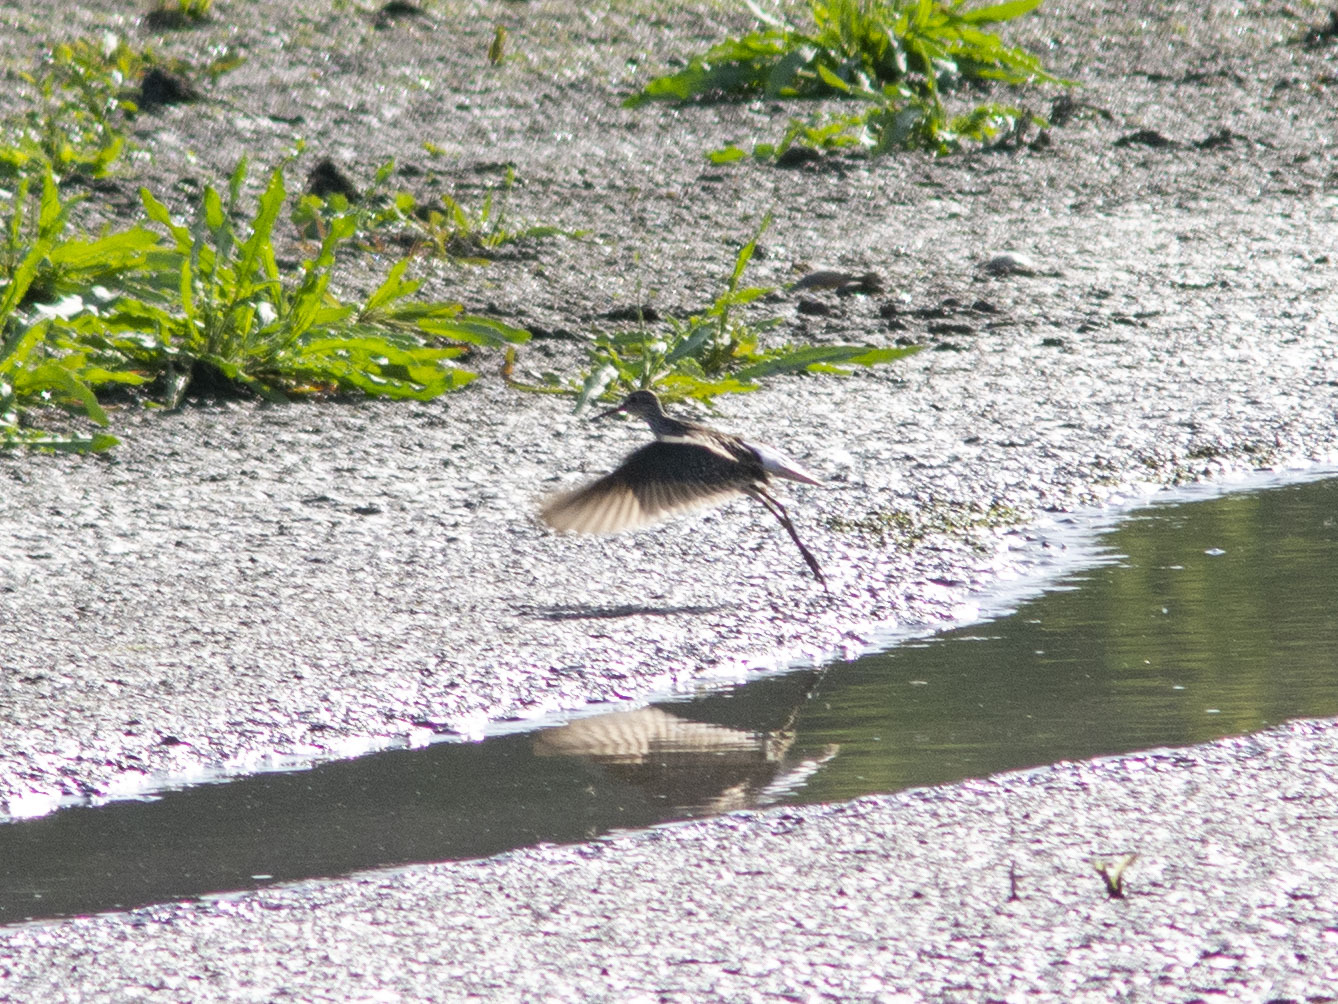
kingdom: Animalia
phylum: Chordata
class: Aves
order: Charadriiformes
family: Scolopacidae
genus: Tringa
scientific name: Tringa glareola
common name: Wood sandpiper
